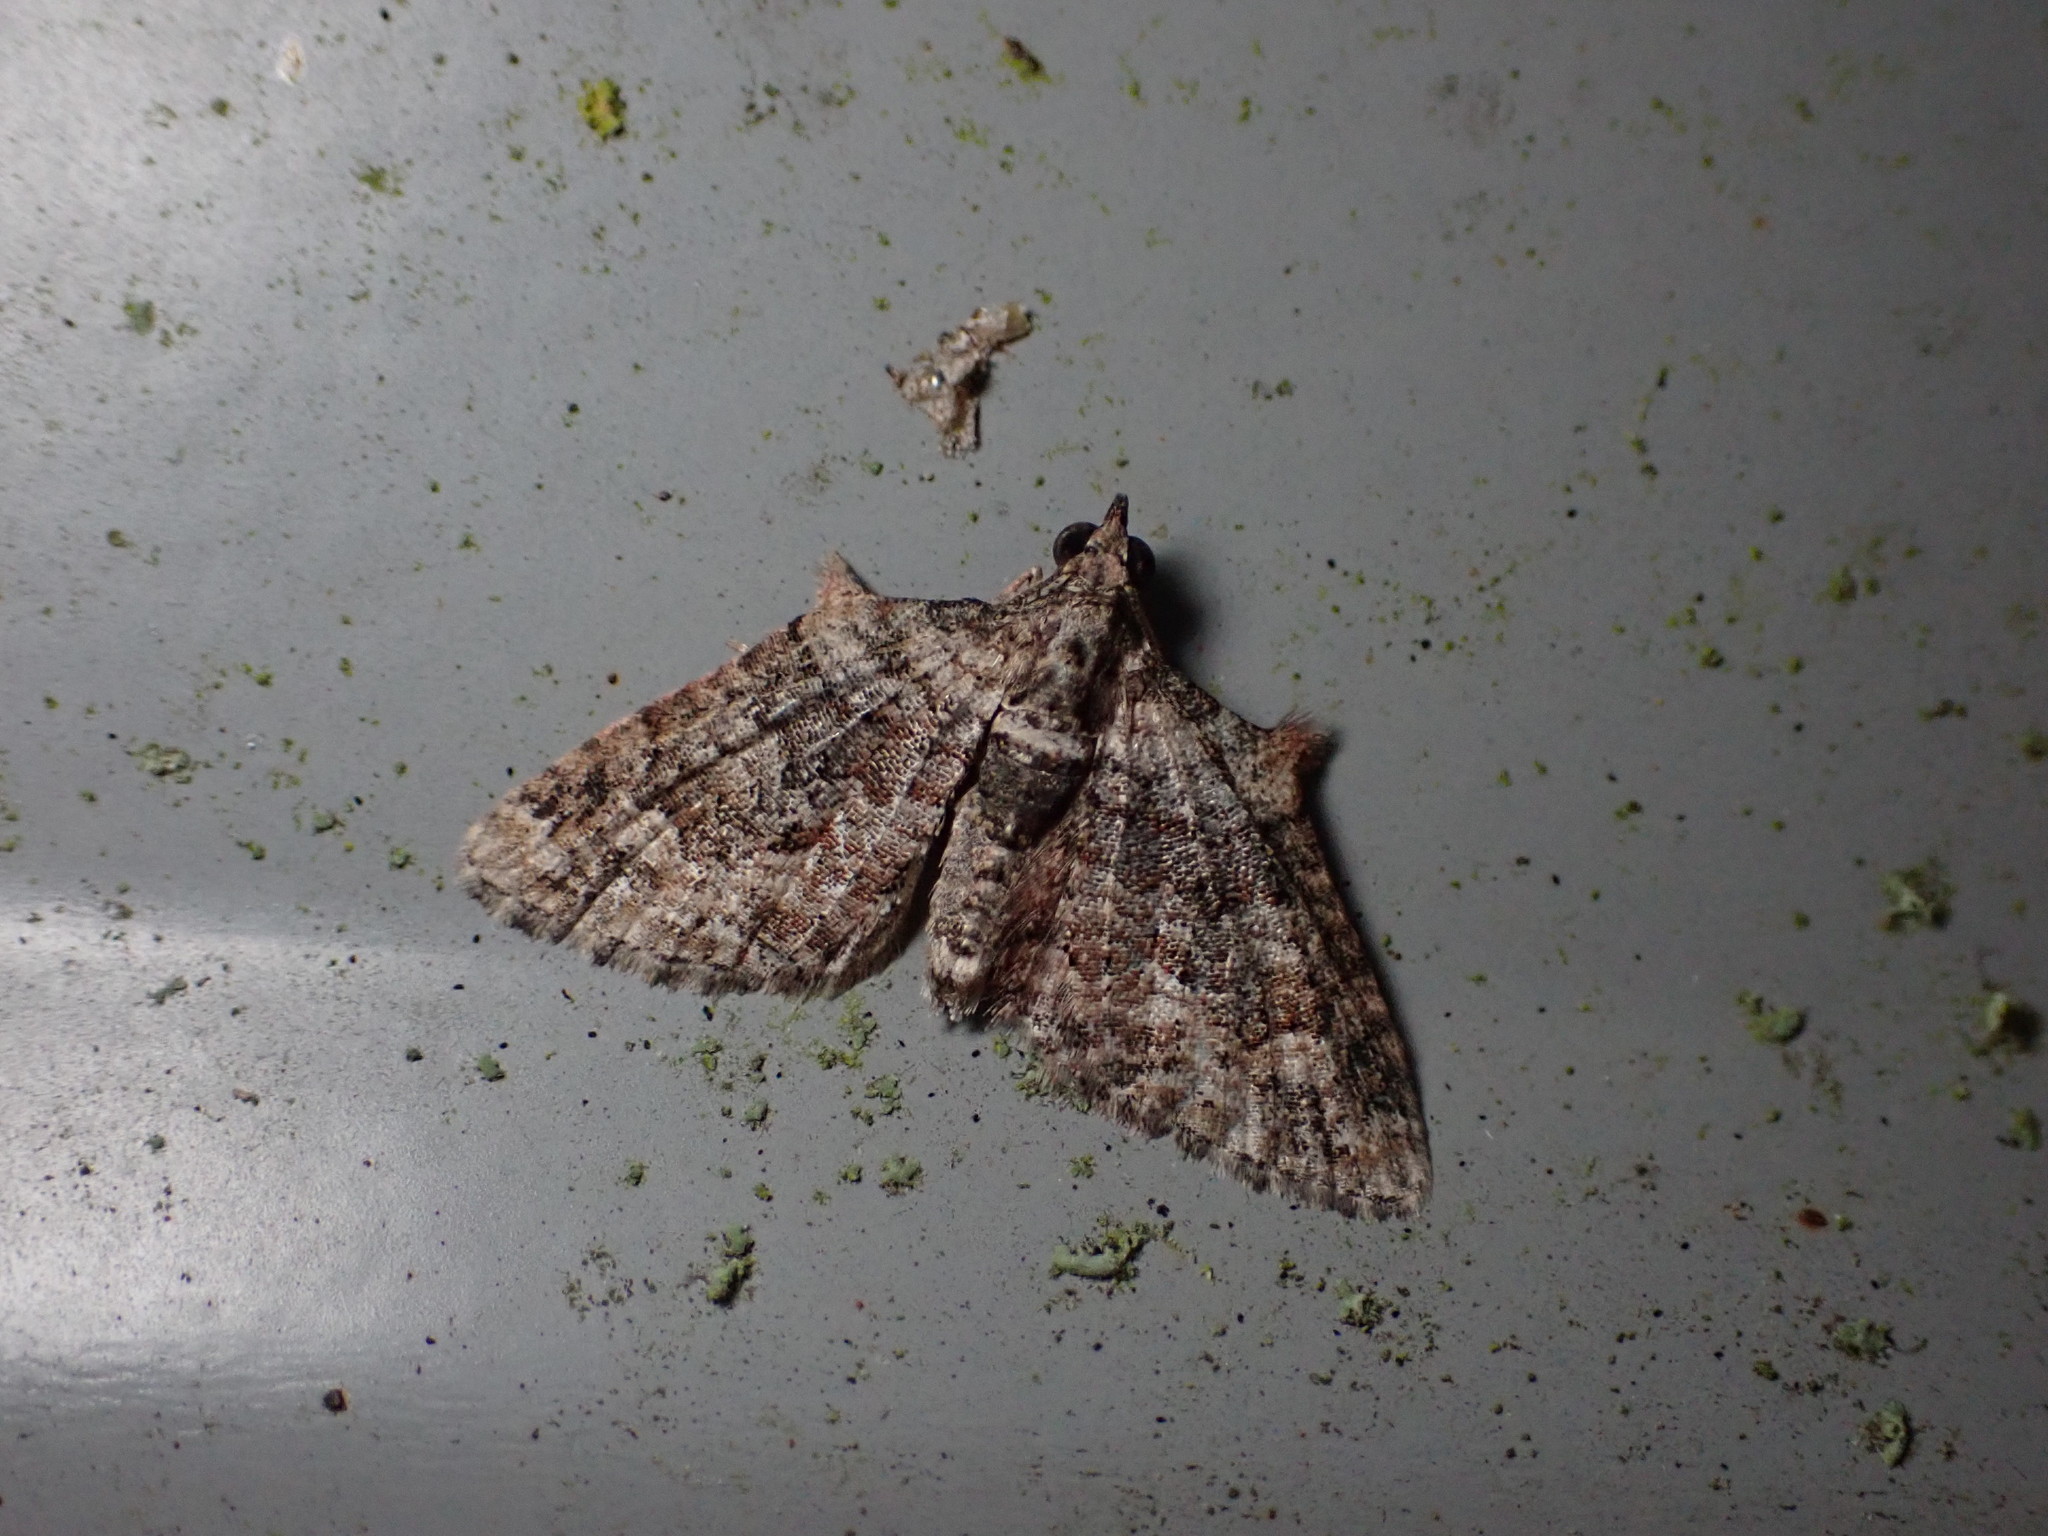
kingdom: Animalia
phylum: Arthropoda
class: Insecta
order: Lepidoptera
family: Geometridae
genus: Phrissogonus
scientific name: Phrissogonus laticostata
